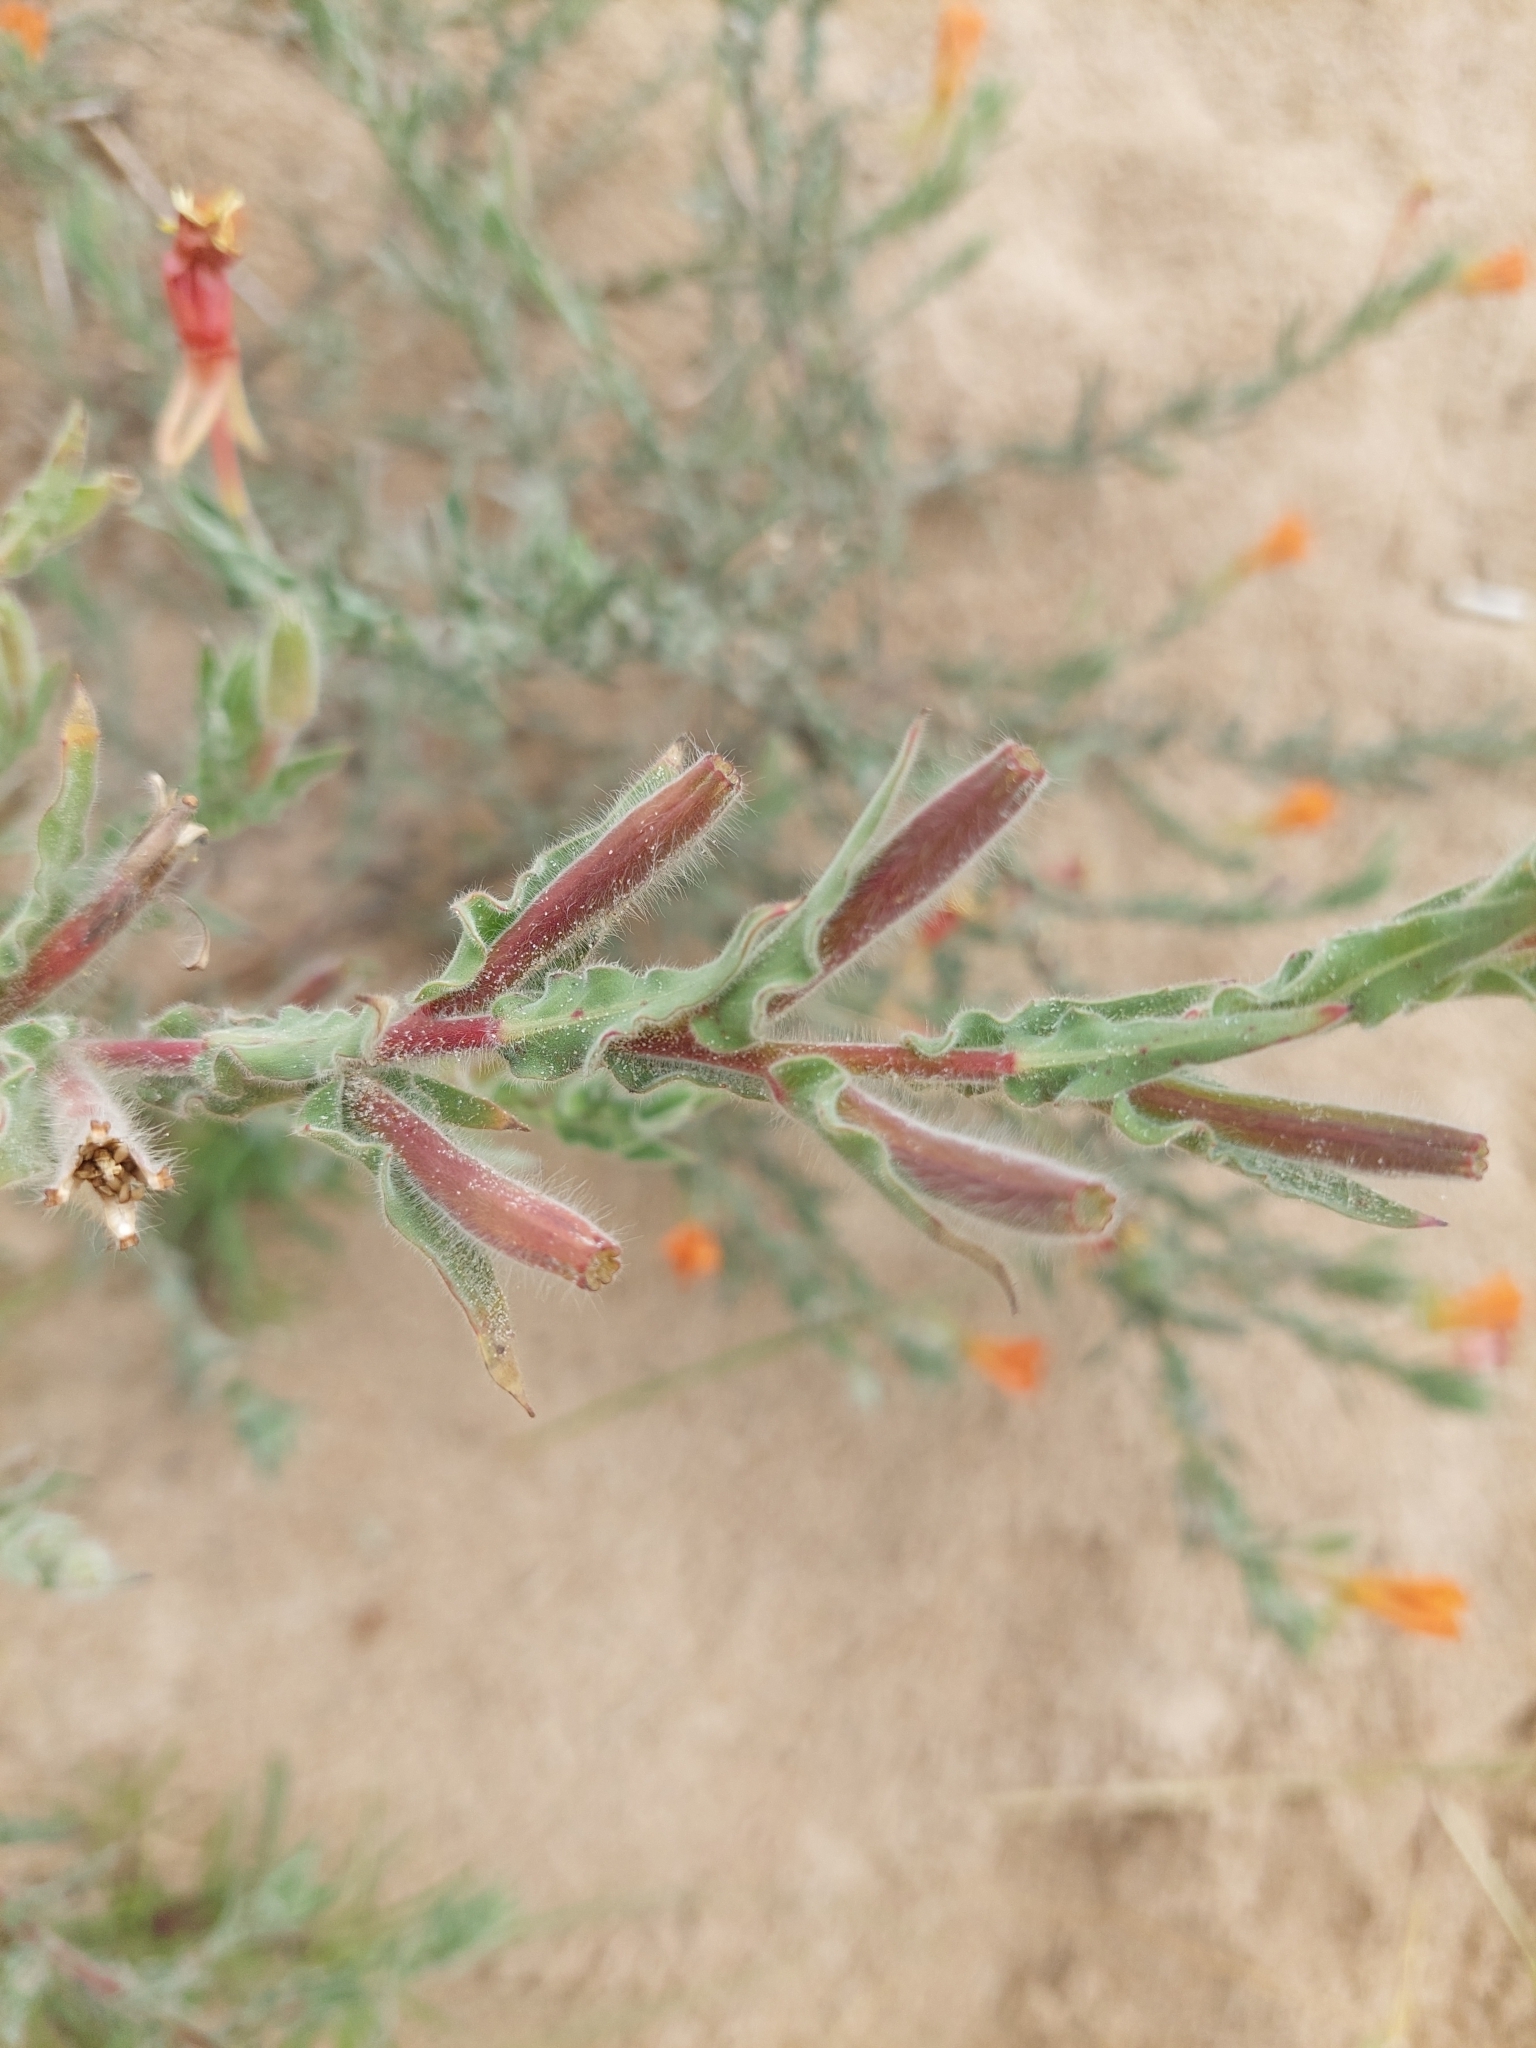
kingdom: Plantae
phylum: Tracheophyta
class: Magnoliopsida
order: Myrtales
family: Onagraceae
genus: Oenothera
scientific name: Oenothera mollissima
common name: Argentine evening primrose
